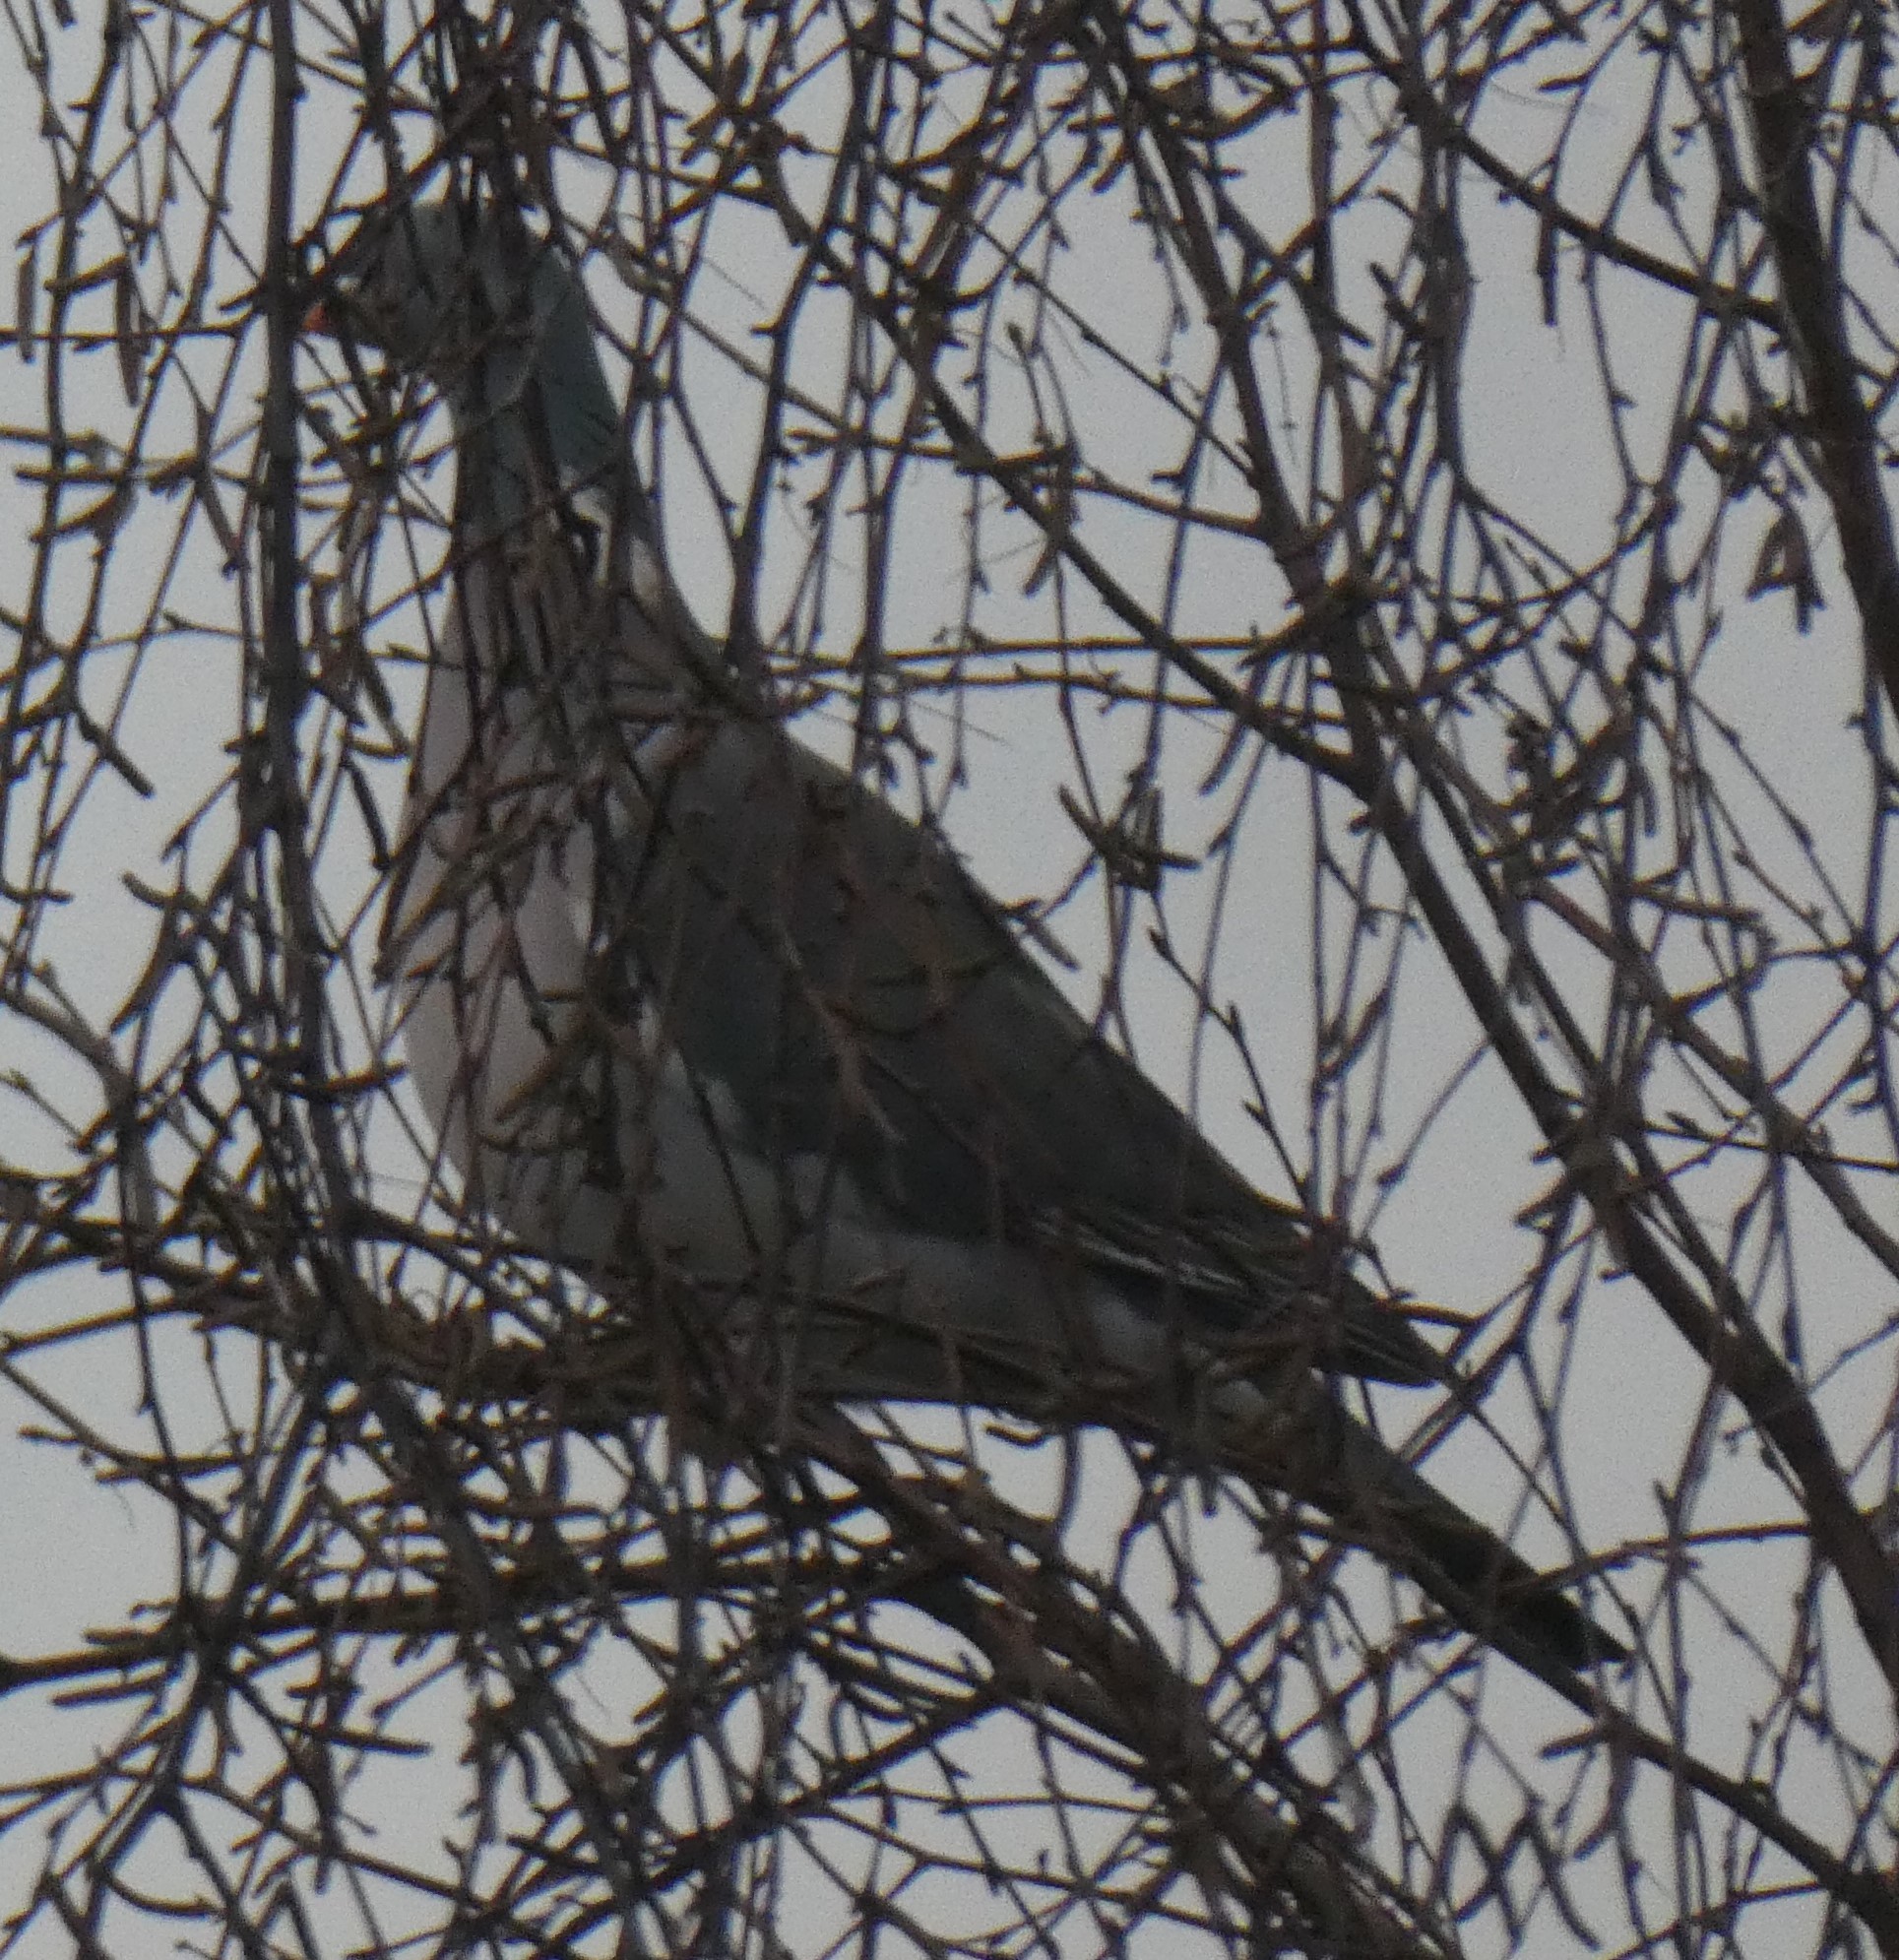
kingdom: Animalia
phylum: Chordata
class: Aves
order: Columbiformes
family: Columbidae
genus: Columba
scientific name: Columba palumbus
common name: Common wood pigeon
